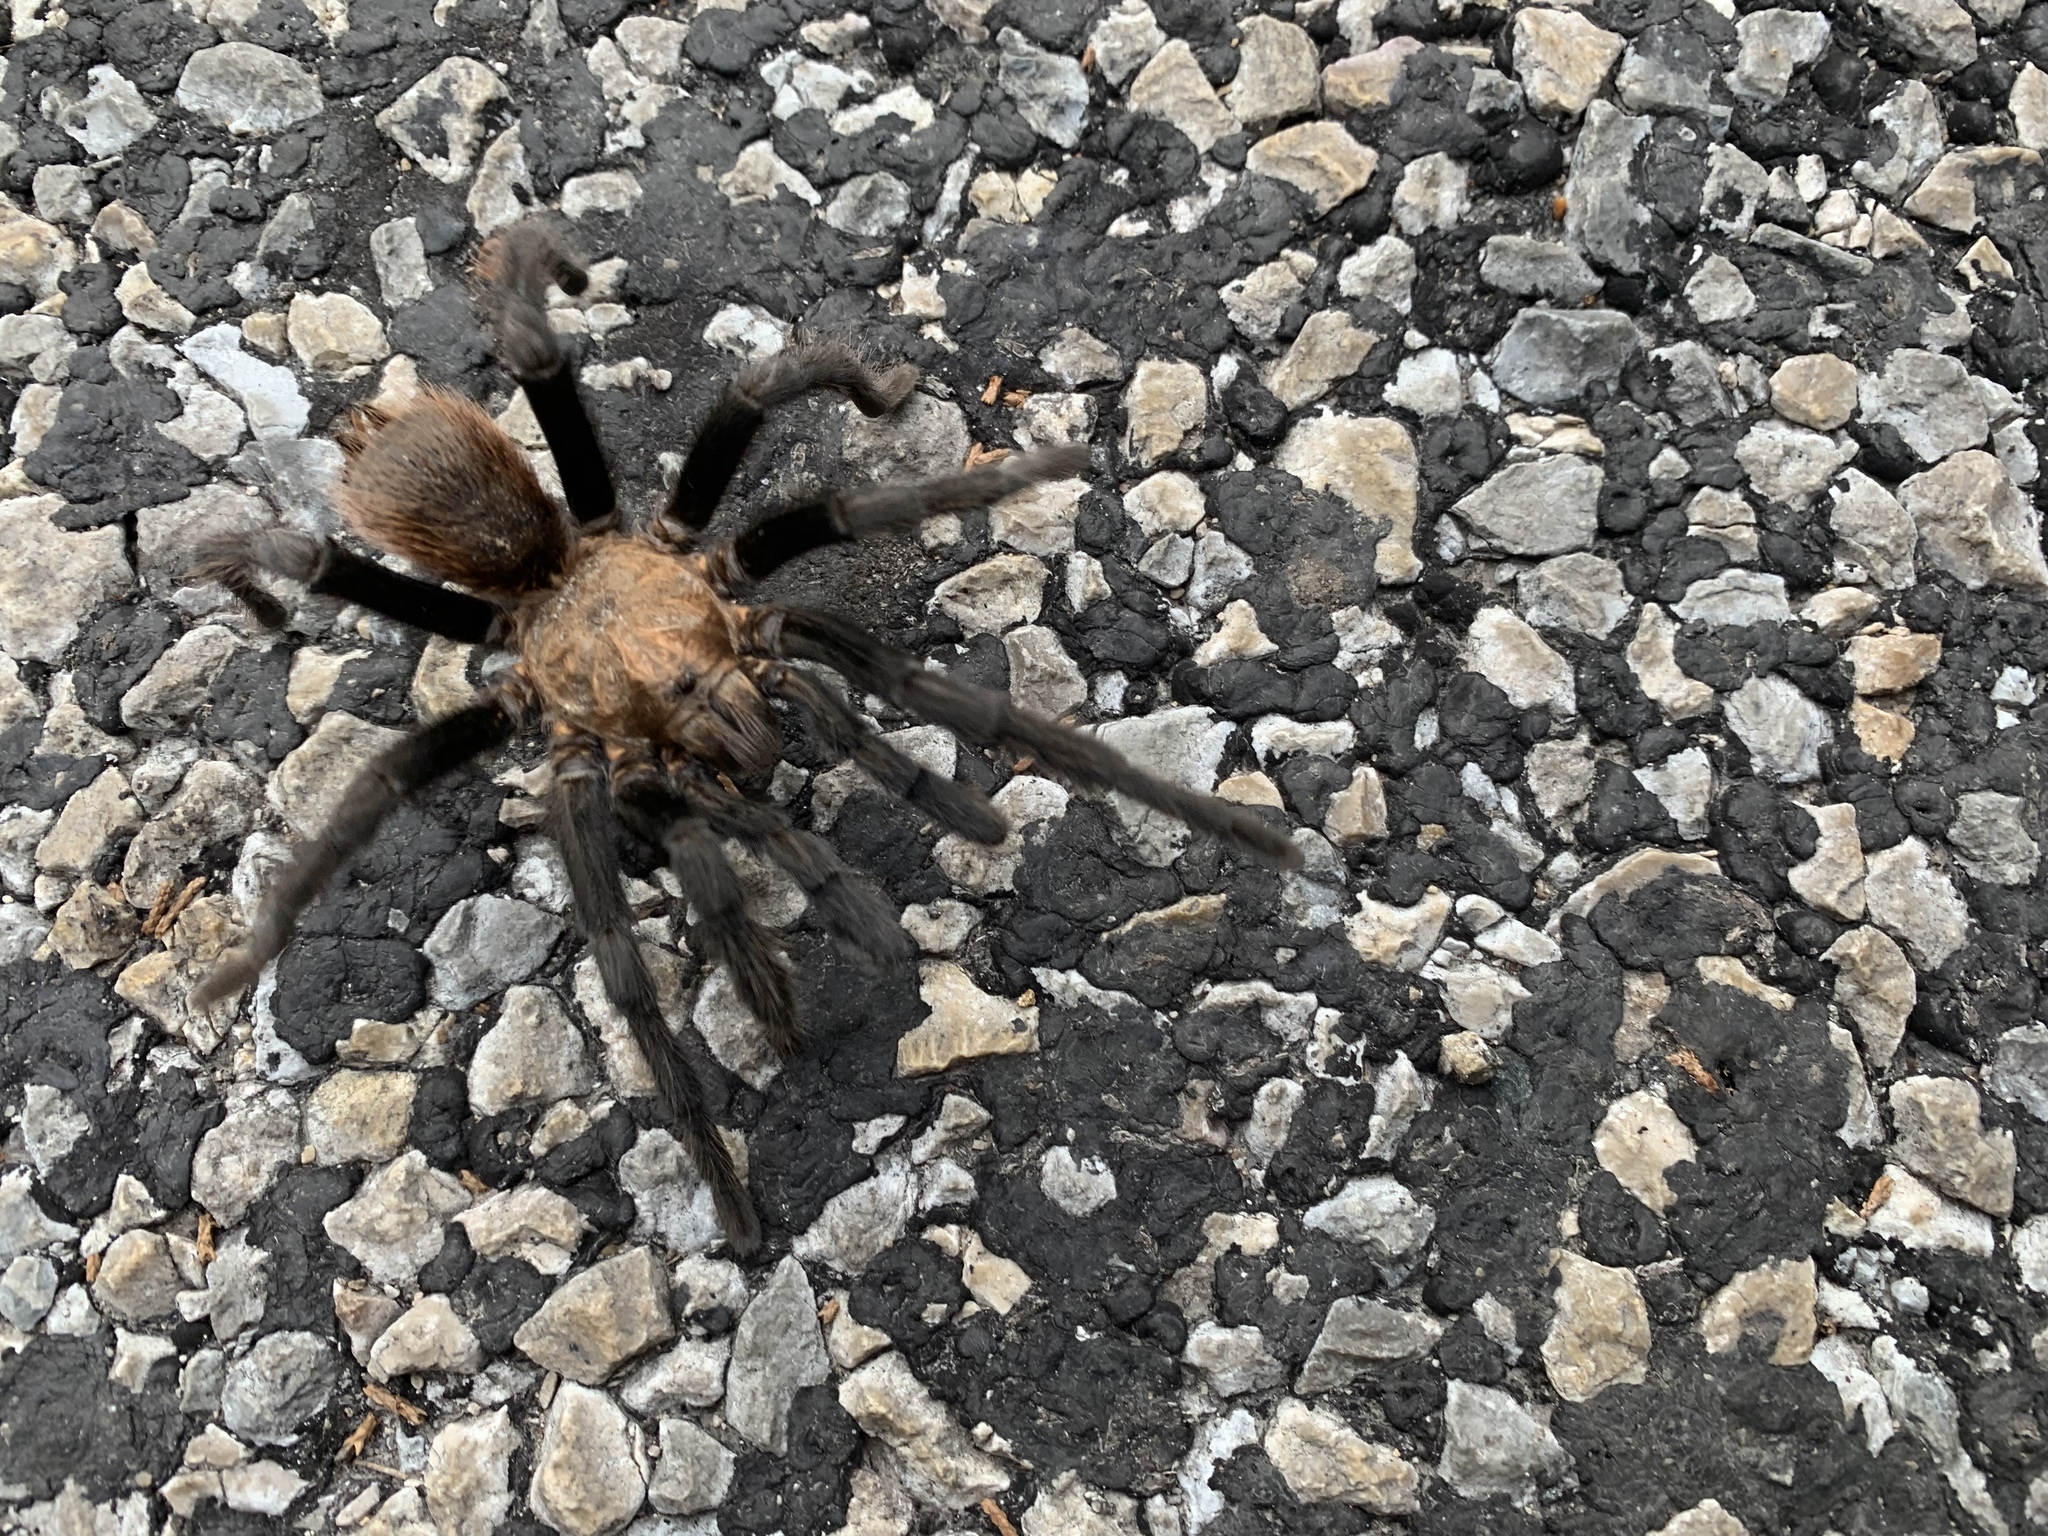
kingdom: Animalia
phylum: Arthropoda
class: Arachnida
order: Araneae
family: Theraphosidae
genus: Aphonopelma
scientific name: Aphonopelma hentzi
